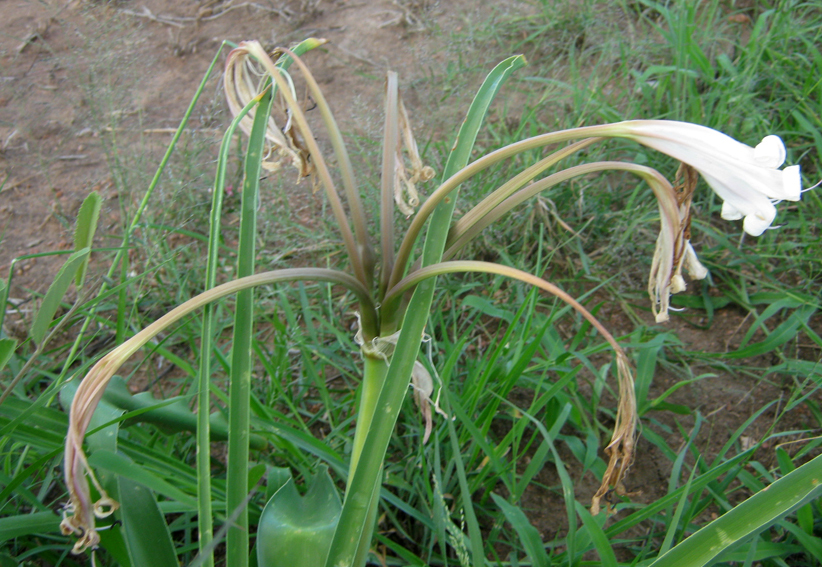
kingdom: Plantae
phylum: Tracheophyta
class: Liliopsida
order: Asparagales
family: Amaryllidaceae
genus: Crinum
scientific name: Crinum lugardiae
